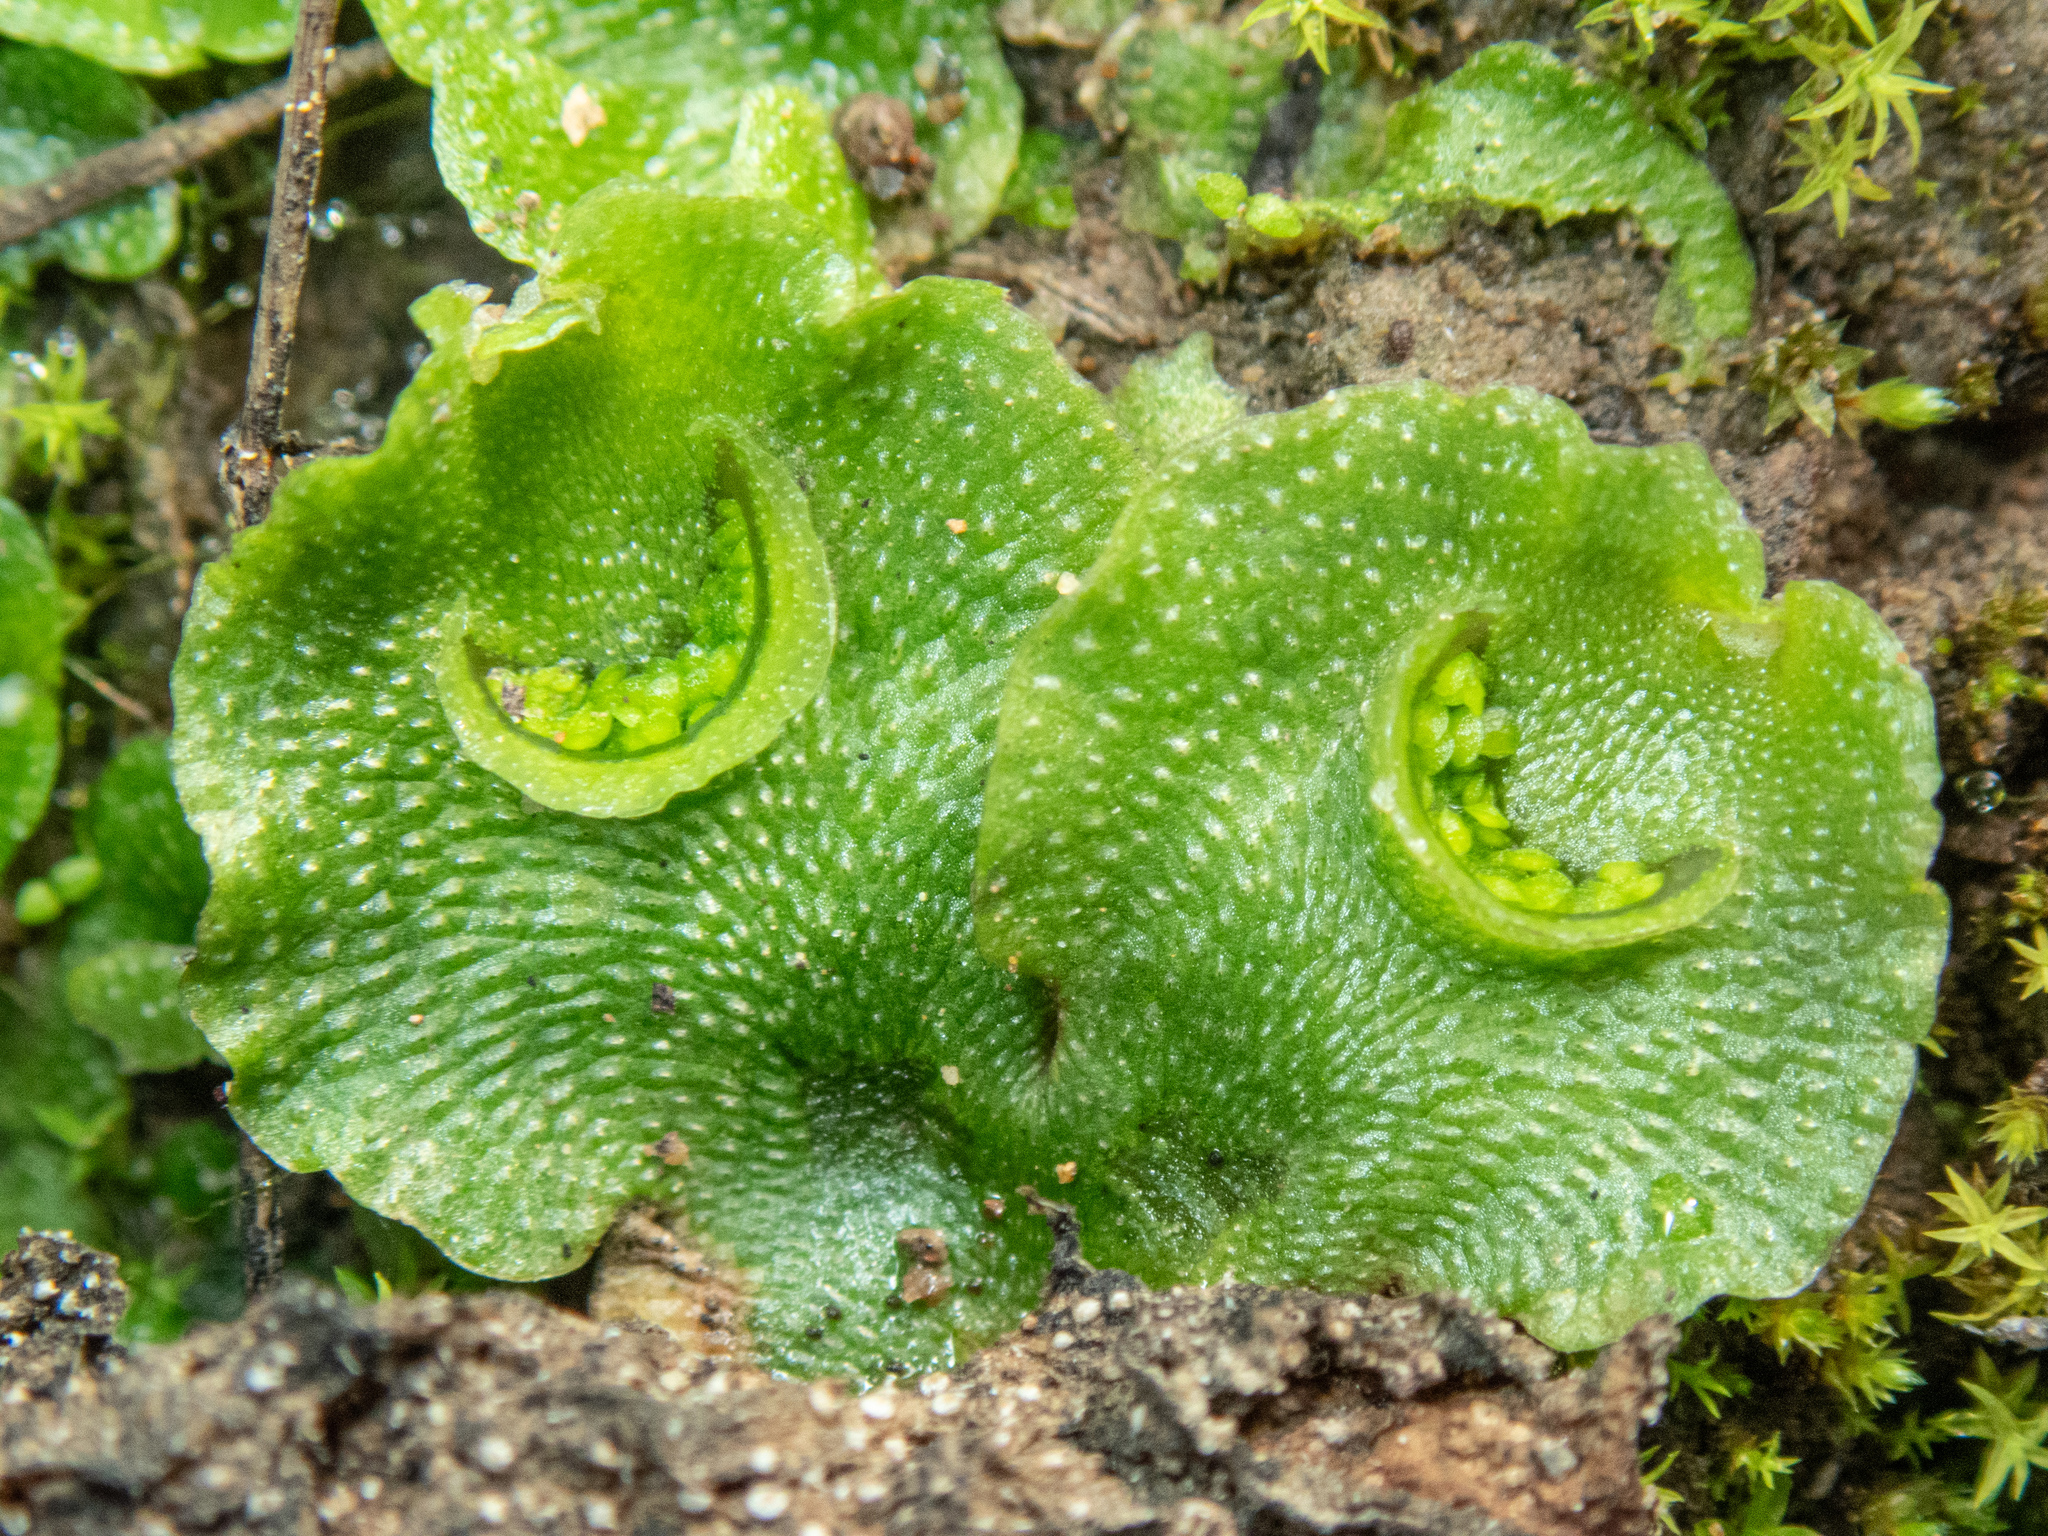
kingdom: Plantae
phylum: Marchantiophyta
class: Marchantiopsida
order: Lunulariales
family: Lunulariaceae
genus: Lunularia
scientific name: Lunularia cruciata
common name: Crescent-cup liverwort
